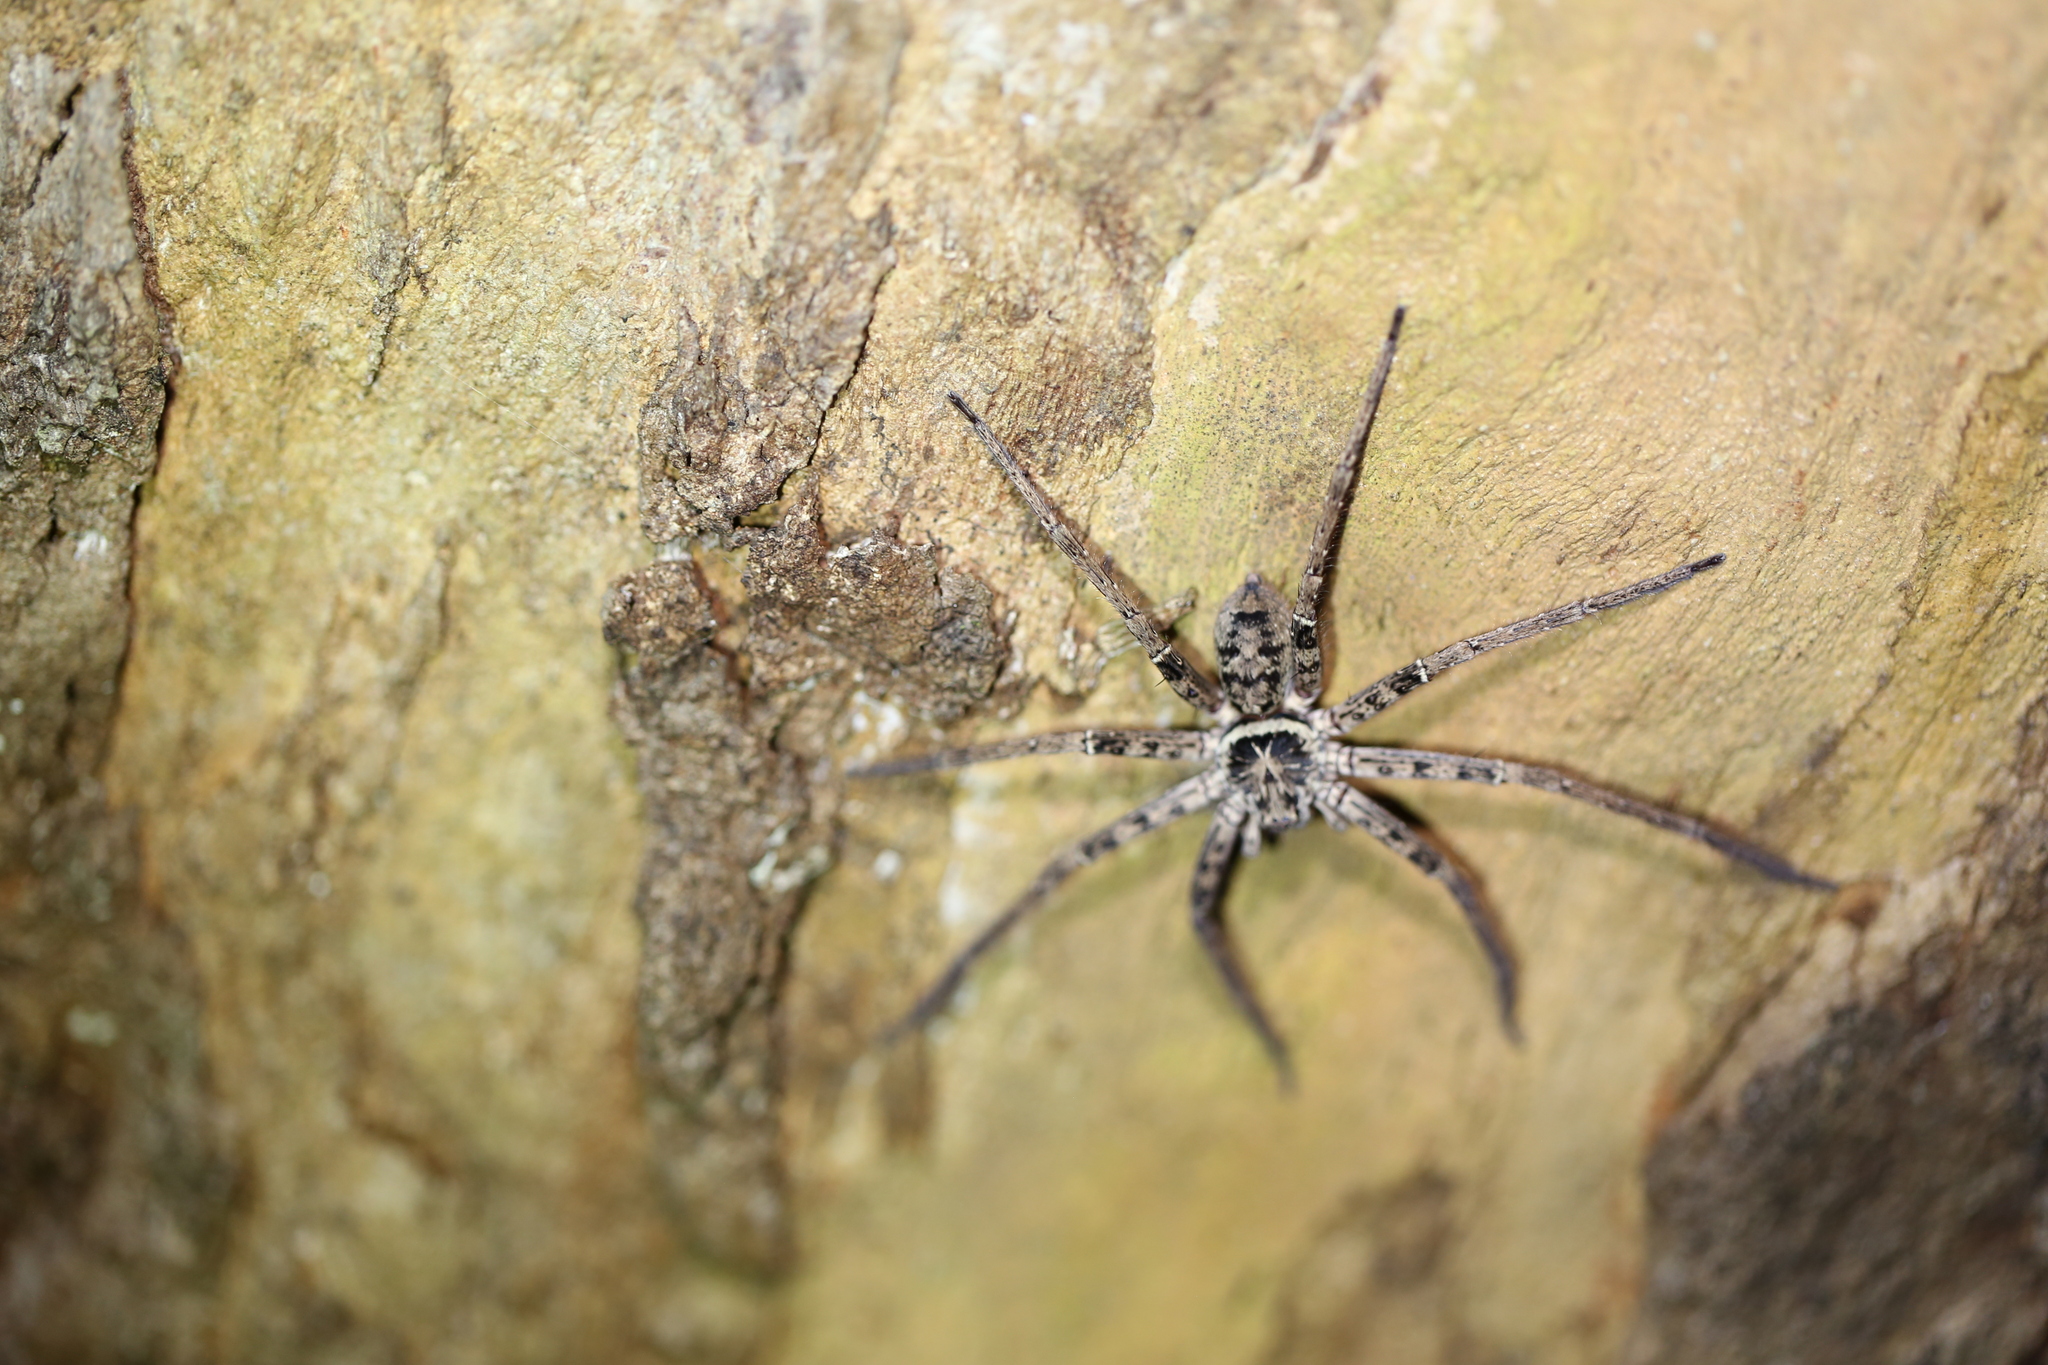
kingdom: Animalia
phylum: Arthropoda
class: Arachnida
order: Araneae
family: Sparassidae
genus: Heteropoda
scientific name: Heteropoda jugulans
